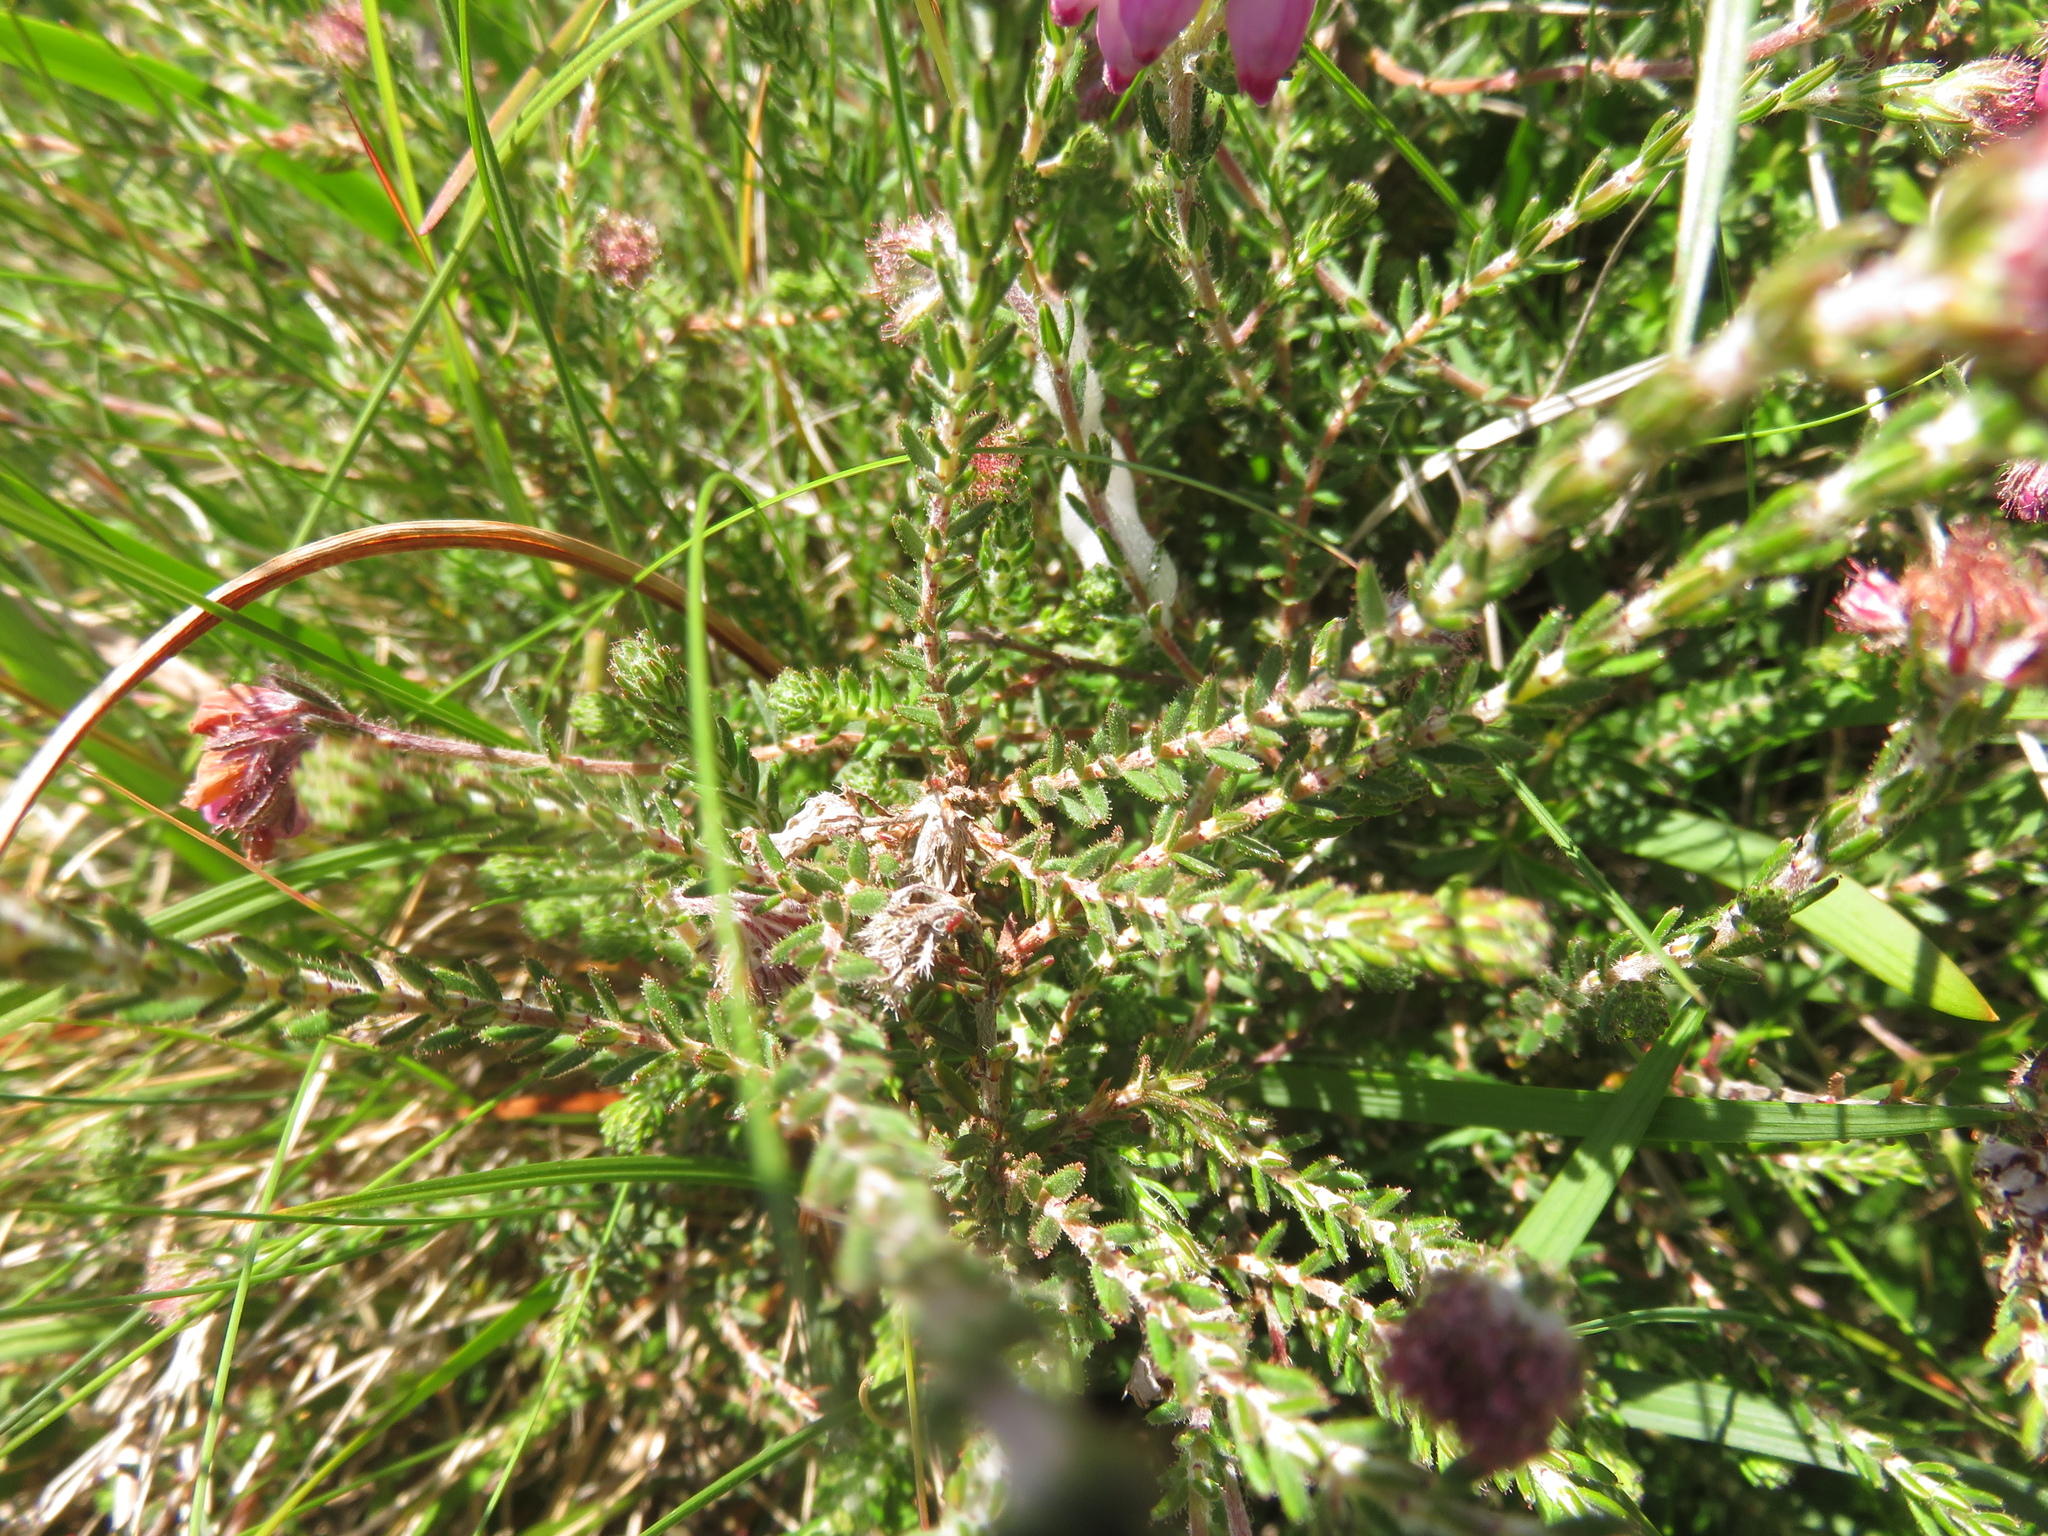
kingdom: Plantae
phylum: Tracheophyta
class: Magnoliopsida
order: Ericales
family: Ericaceae
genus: Erica
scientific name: Erica tetralix
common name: Cross-leaved heath
